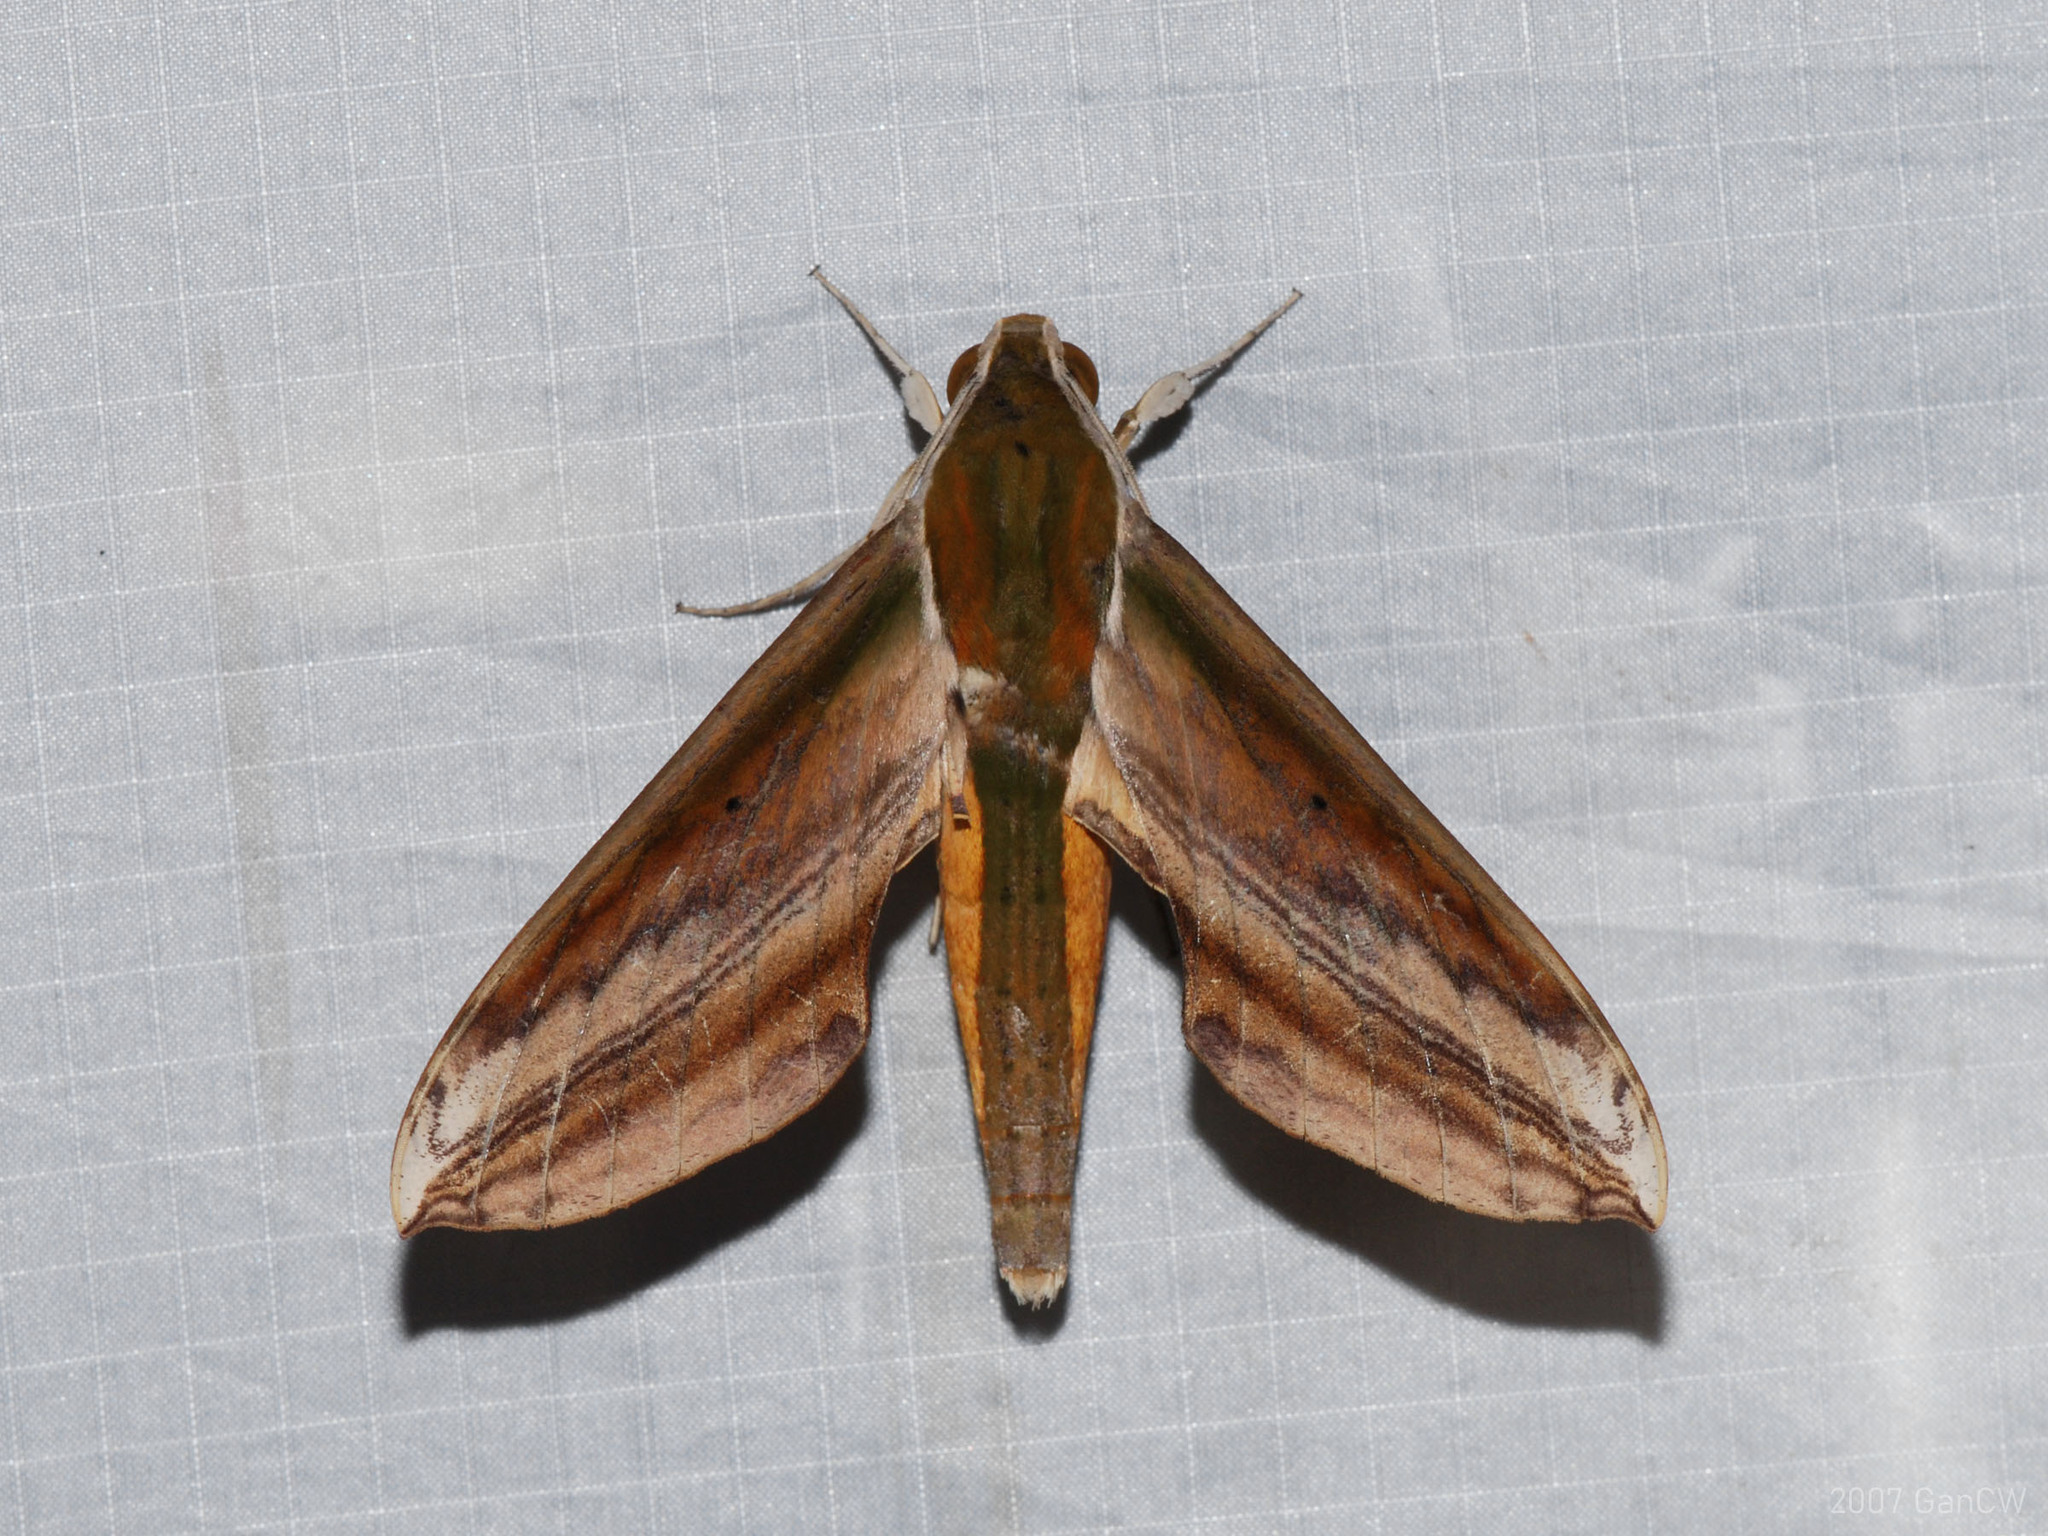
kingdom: Animalia
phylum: Arthropoda
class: Insecta
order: Lepidoptera
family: Sphingidae
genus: Theretra
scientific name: Theretra nessus
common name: Yam hawk moth
